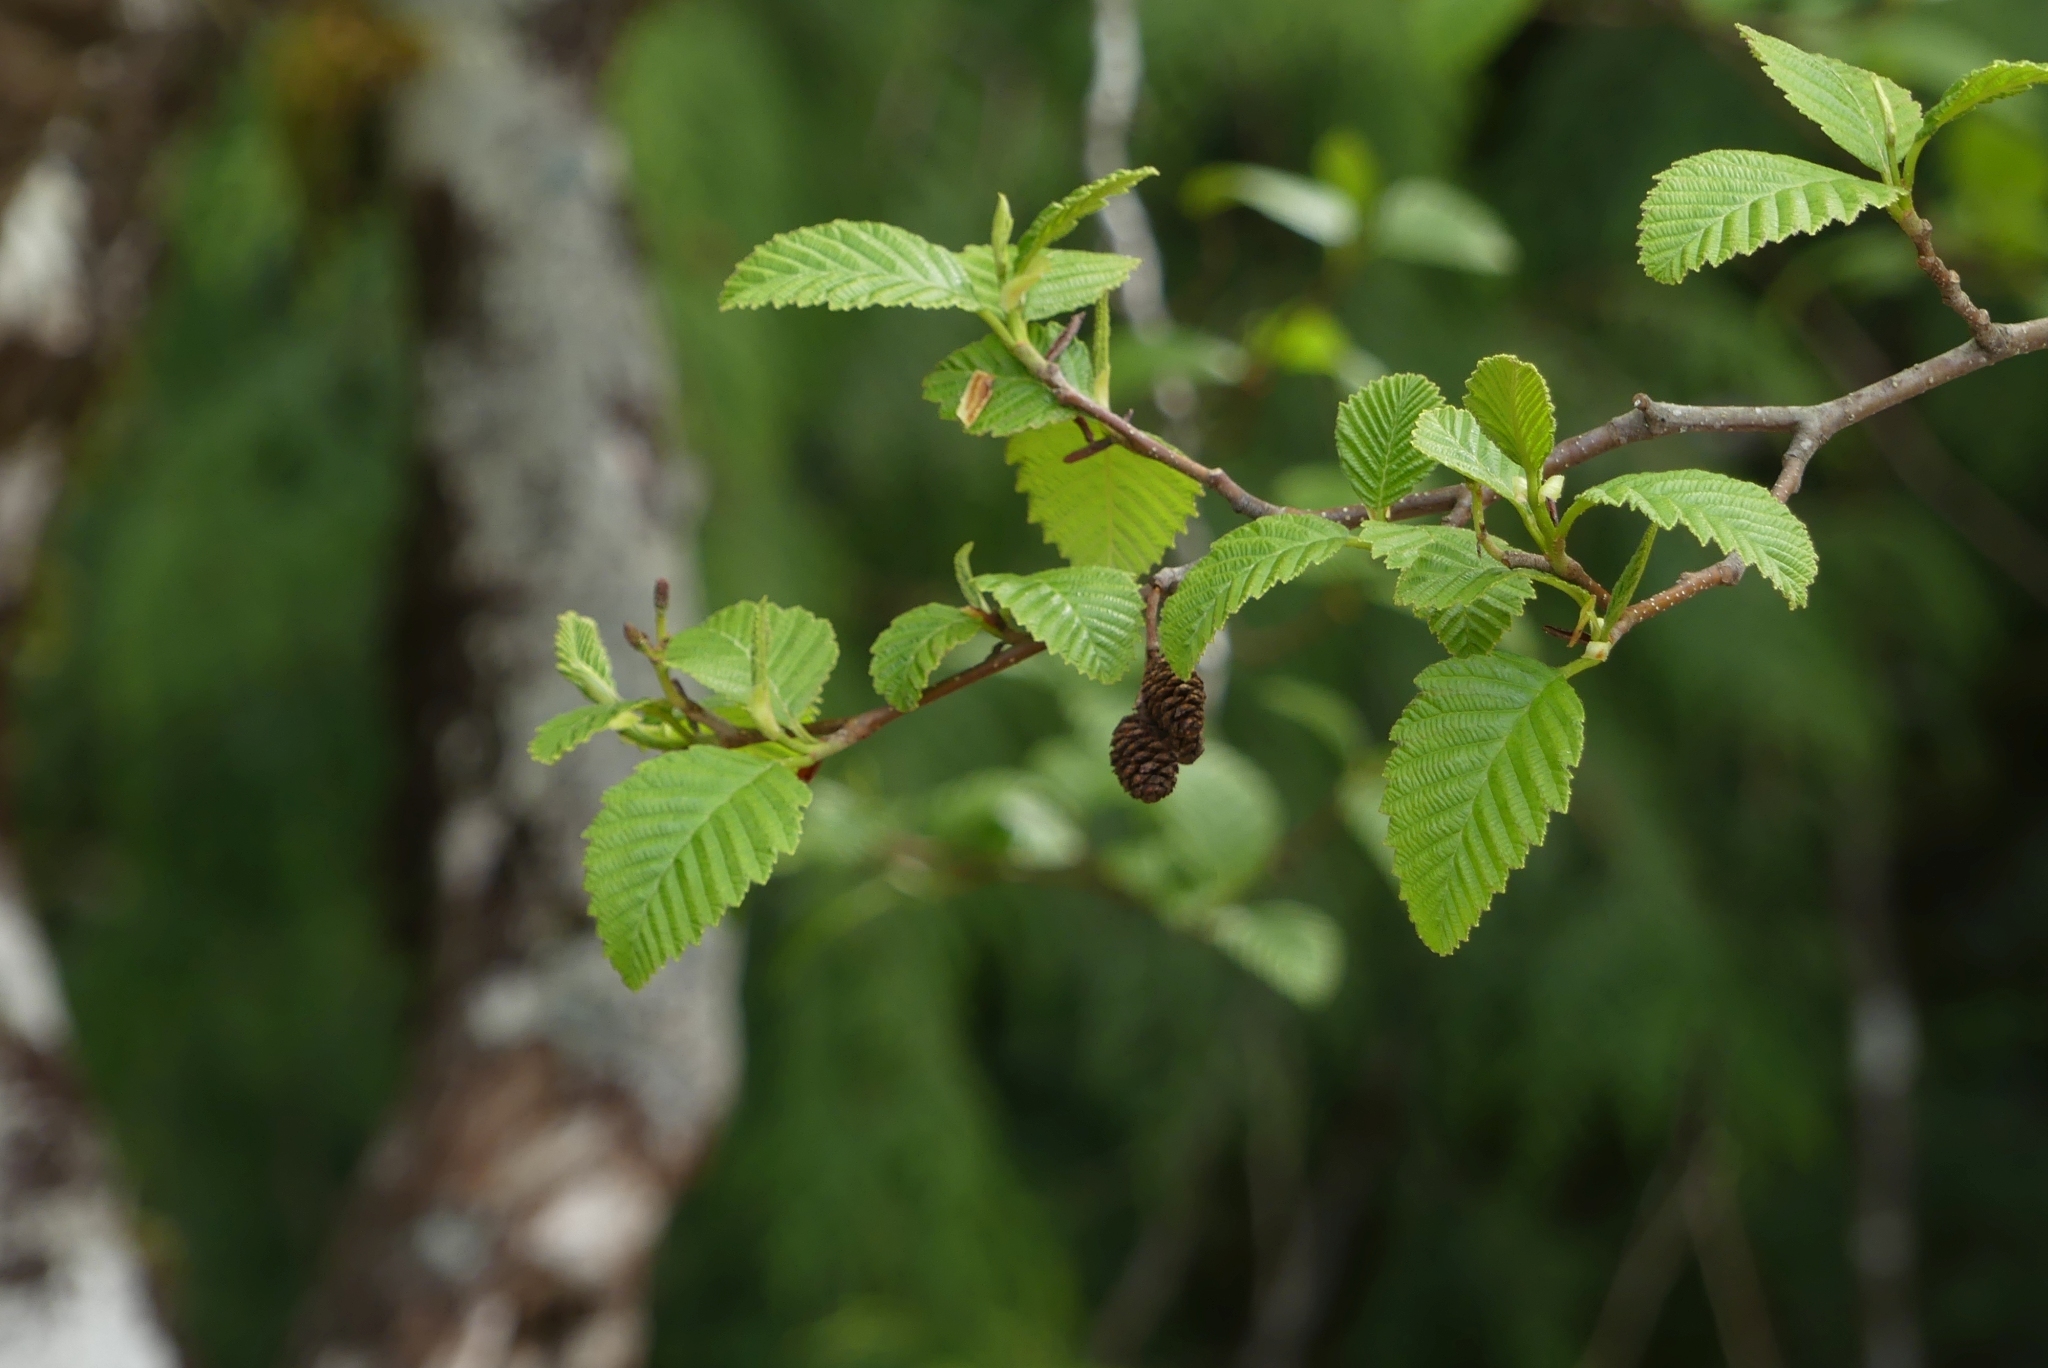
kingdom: Plantae
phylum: Tracheophyta
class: Magnoliopsida
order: Fagales
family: Betulaceae
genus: Alnus
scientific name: Alnus rubra
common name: Red alder
